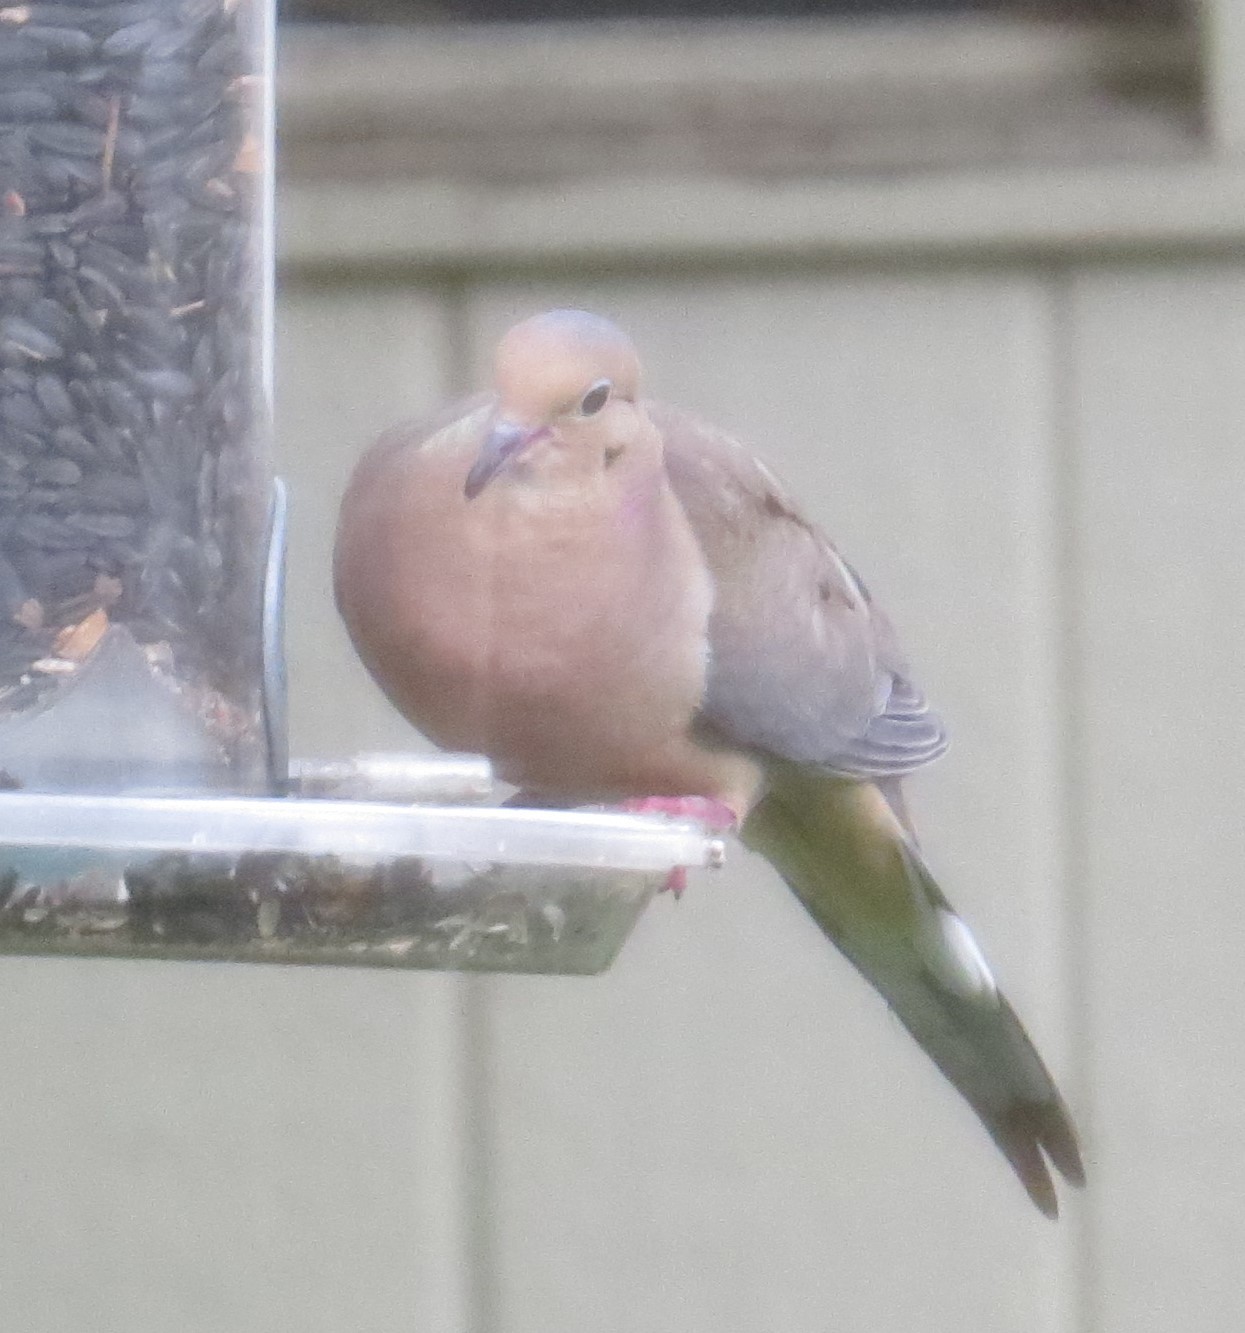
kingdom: Animalia
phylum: Chordata
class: Aves
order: Columbiformes
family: Columbidae
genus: Zenaida
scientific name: Zenaida macroura
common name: Mourning dove
